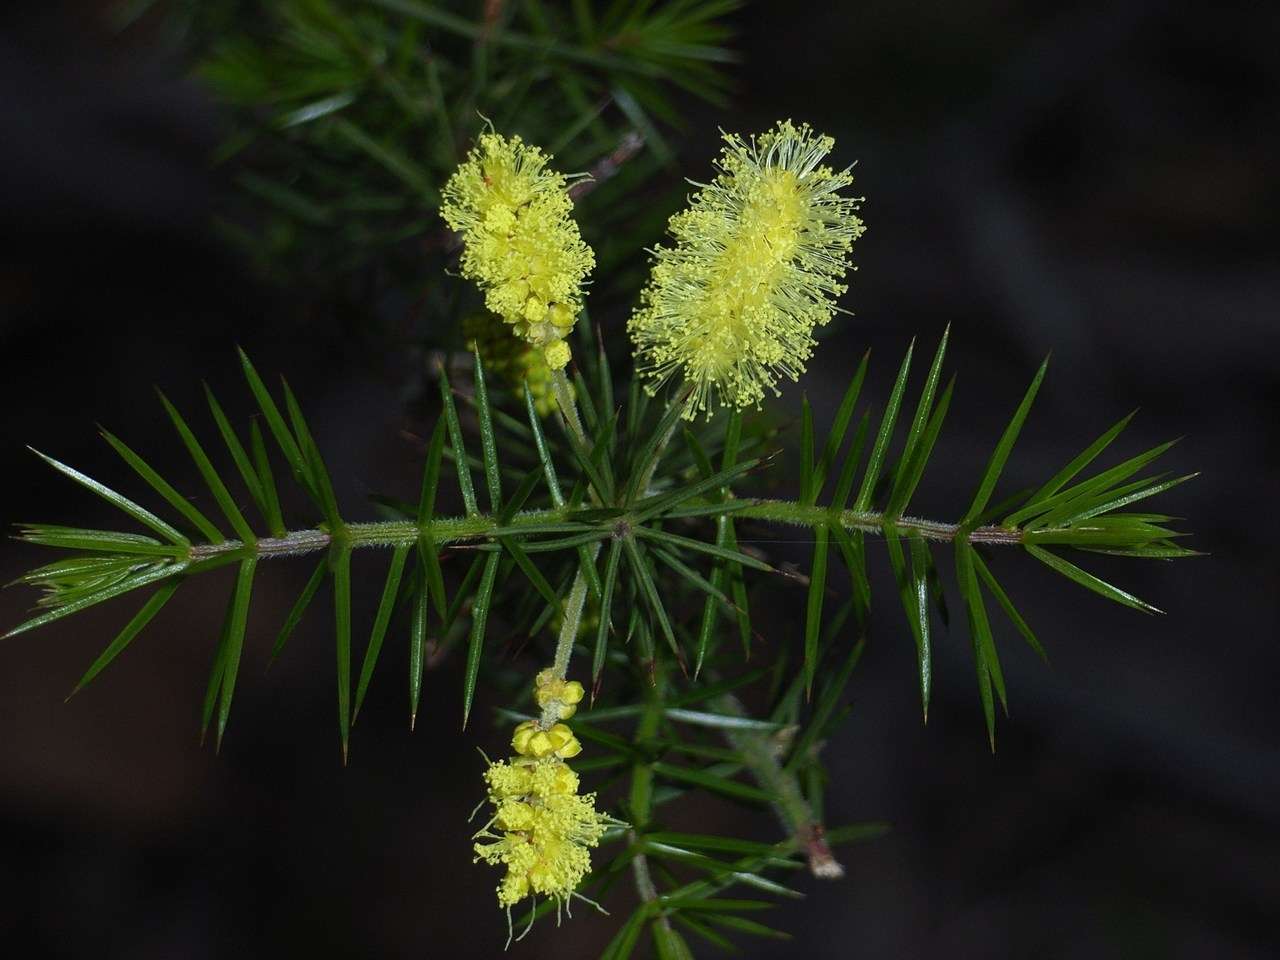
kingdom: Plantae
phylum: Tracheophyta
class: Magnoliopsida
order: Fabales
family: Fabaceae
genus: Acacia
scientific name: Acacia verticillata
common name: Prickly moses
